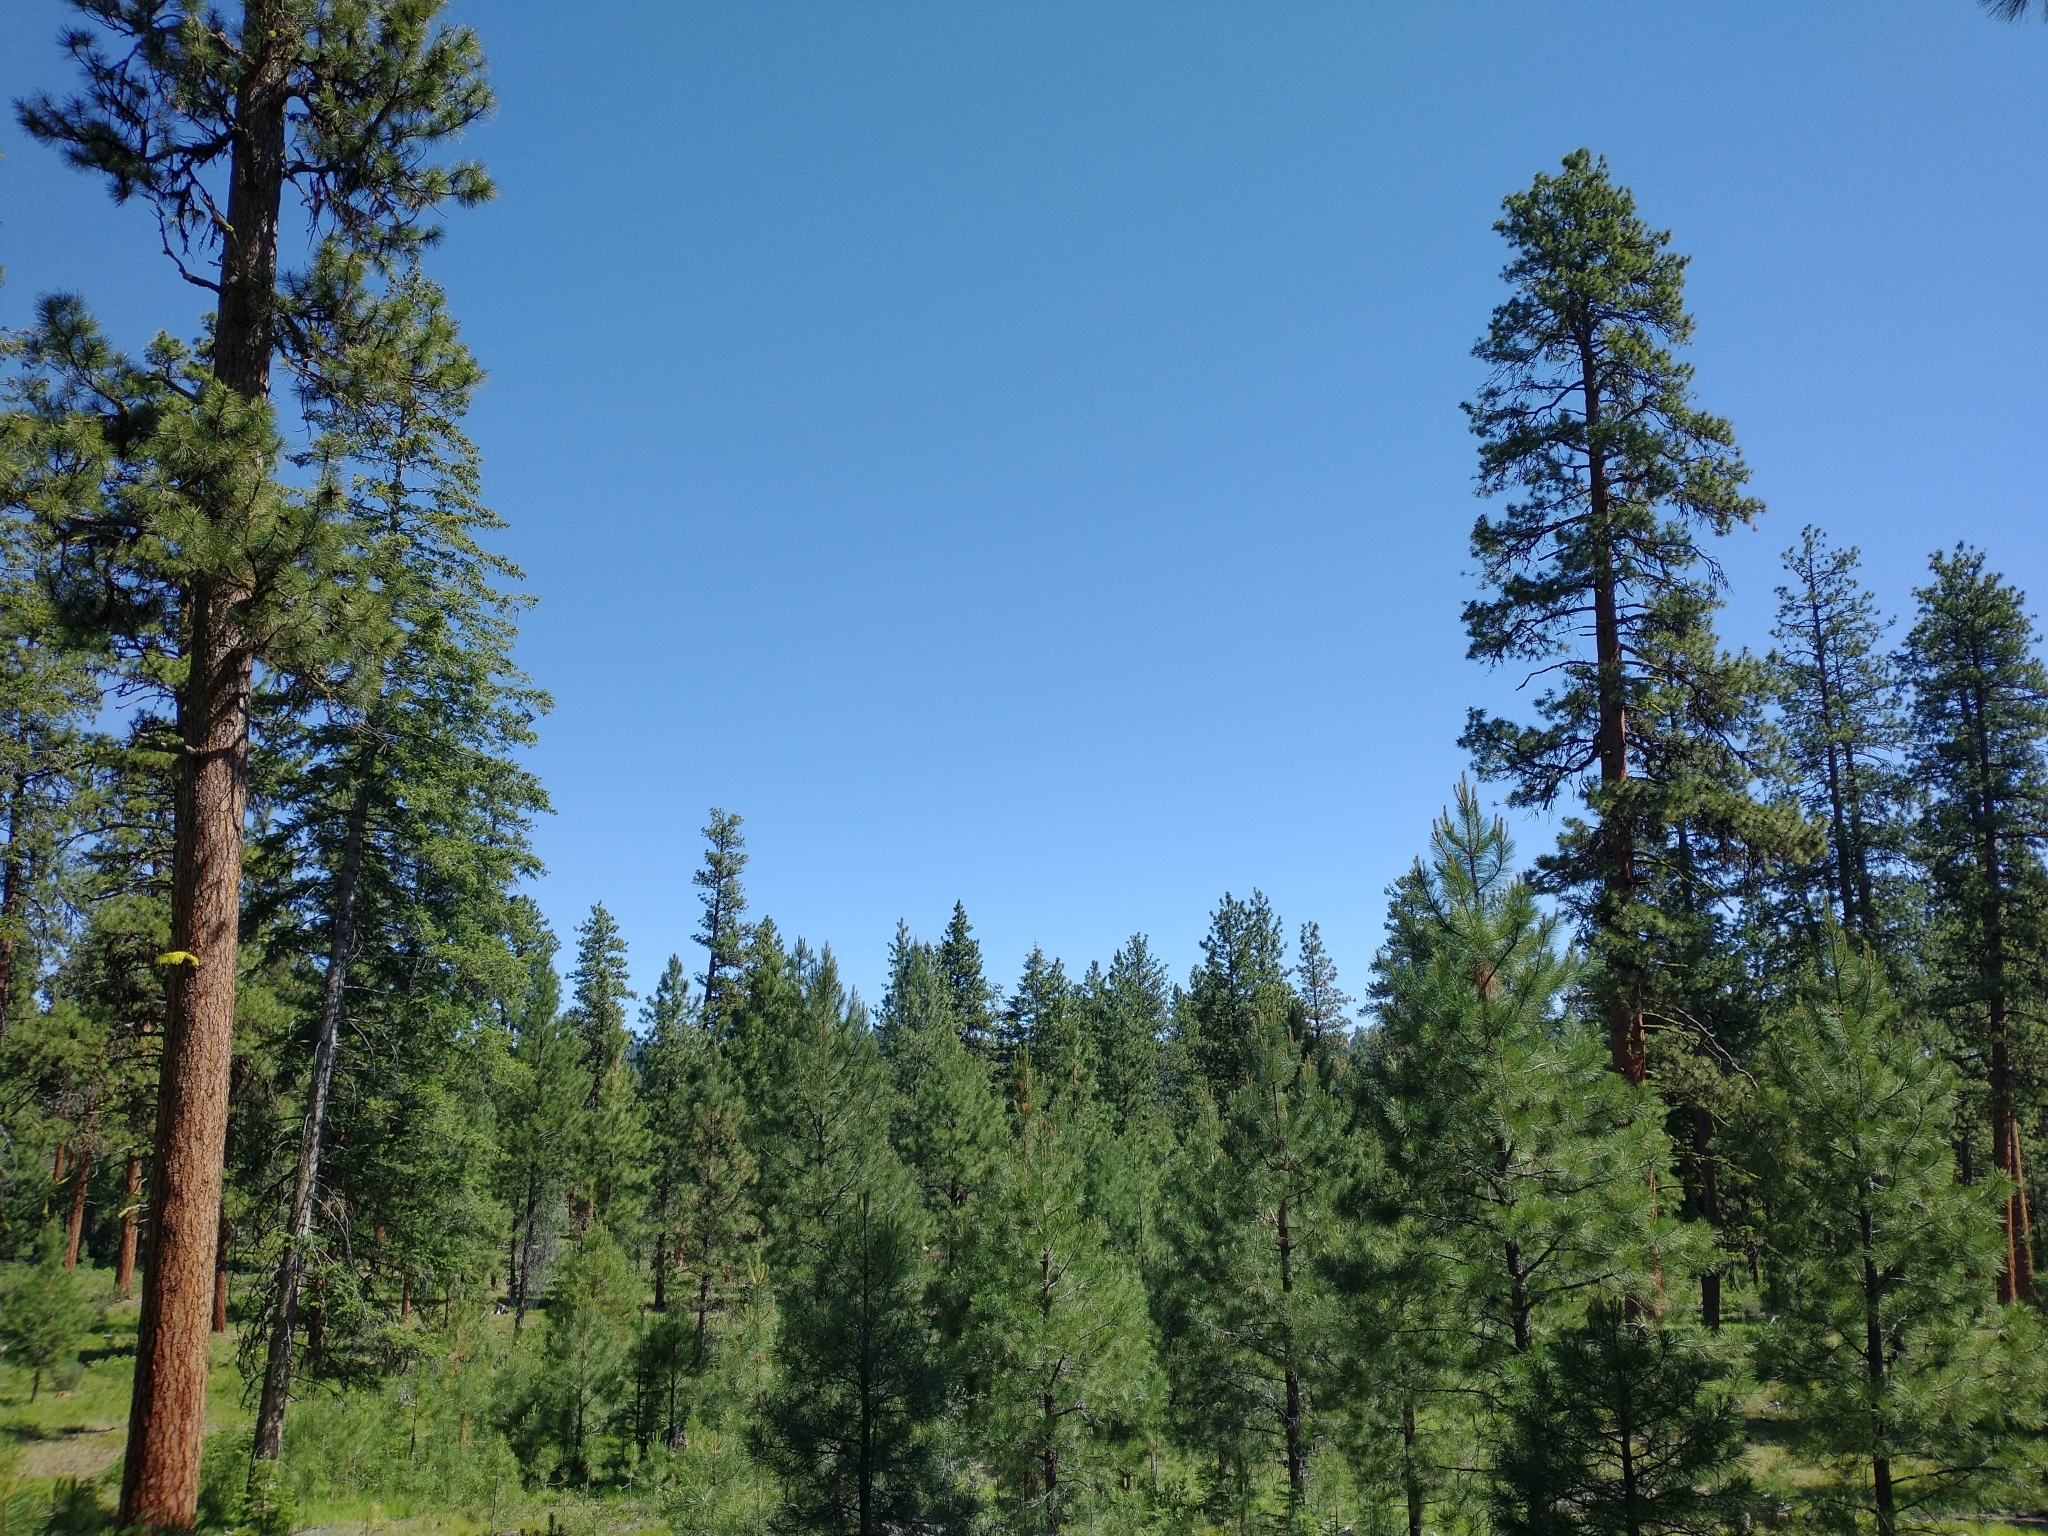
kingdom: Plantae
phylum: Tracheophyta
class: Pinopsida
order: Pinales
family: Pinaceae
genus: Pinus
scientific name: Pinus ponderosa
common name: Western yellow-pine
